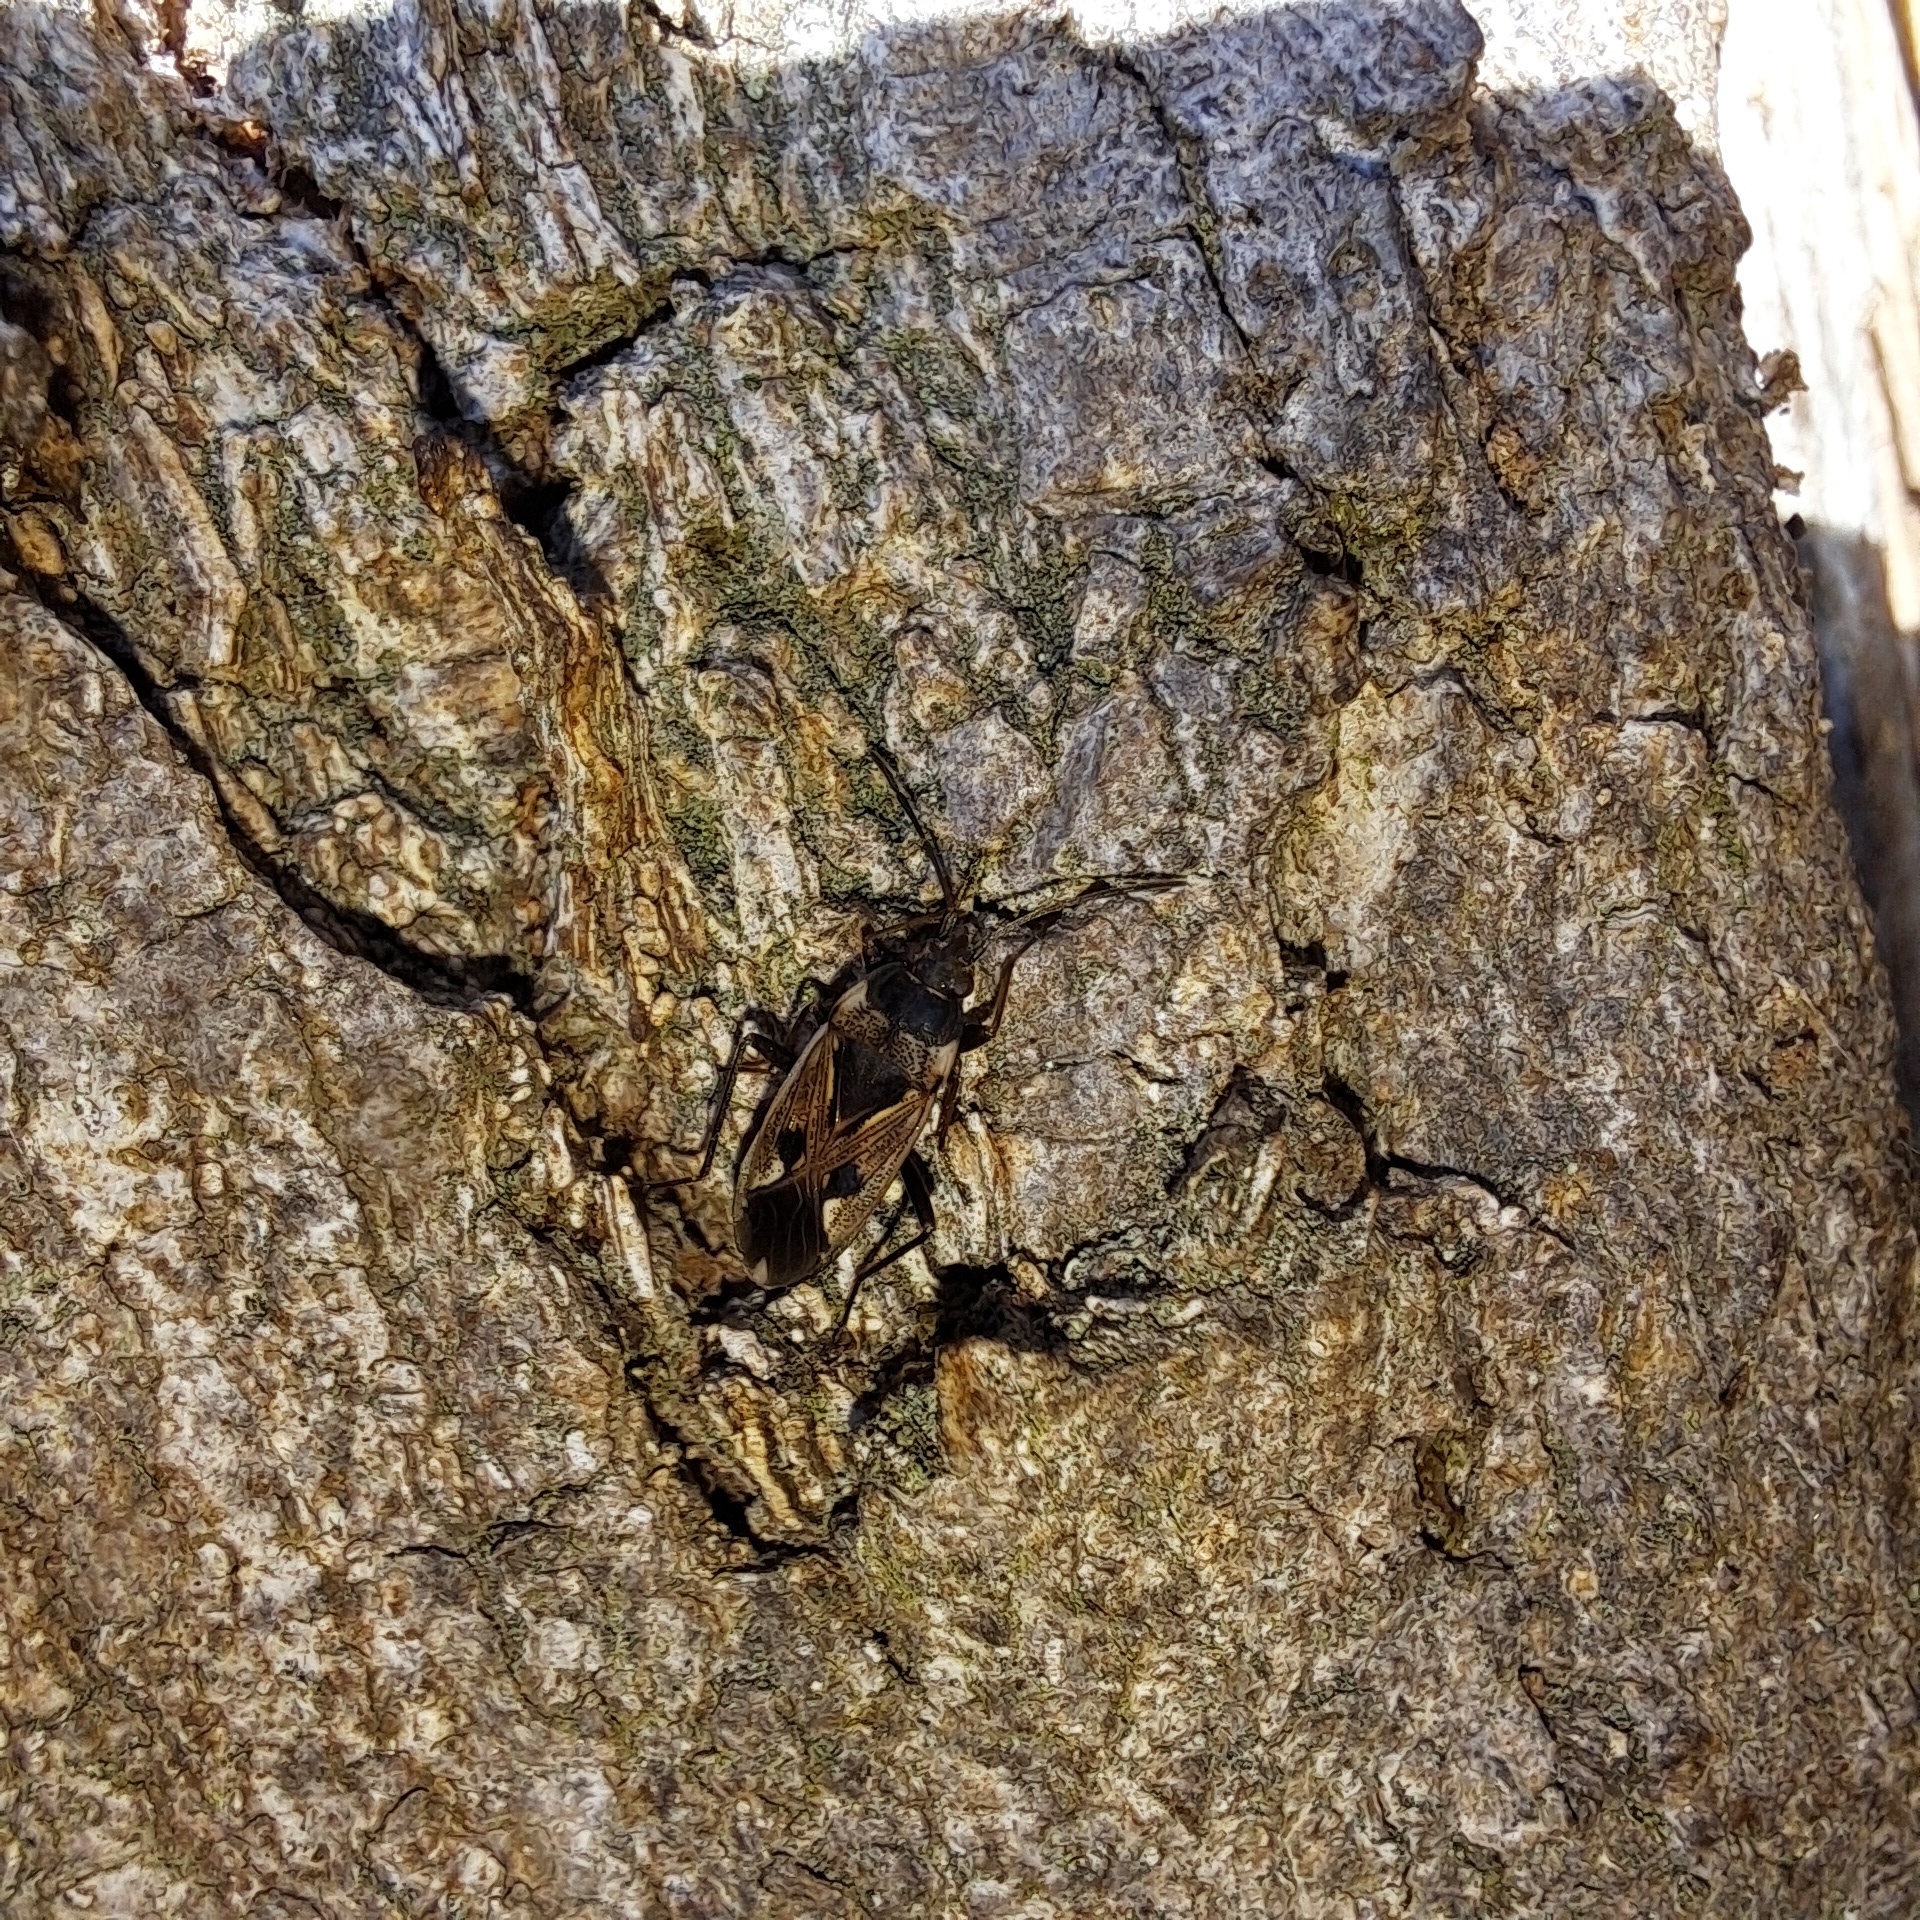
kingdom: Animalia
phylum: Arthropoda
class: Insecta
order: Hemiptera
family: Rhyparochromidae
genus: Rhyparochromus
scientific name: Rhyparochromus vulgaris
